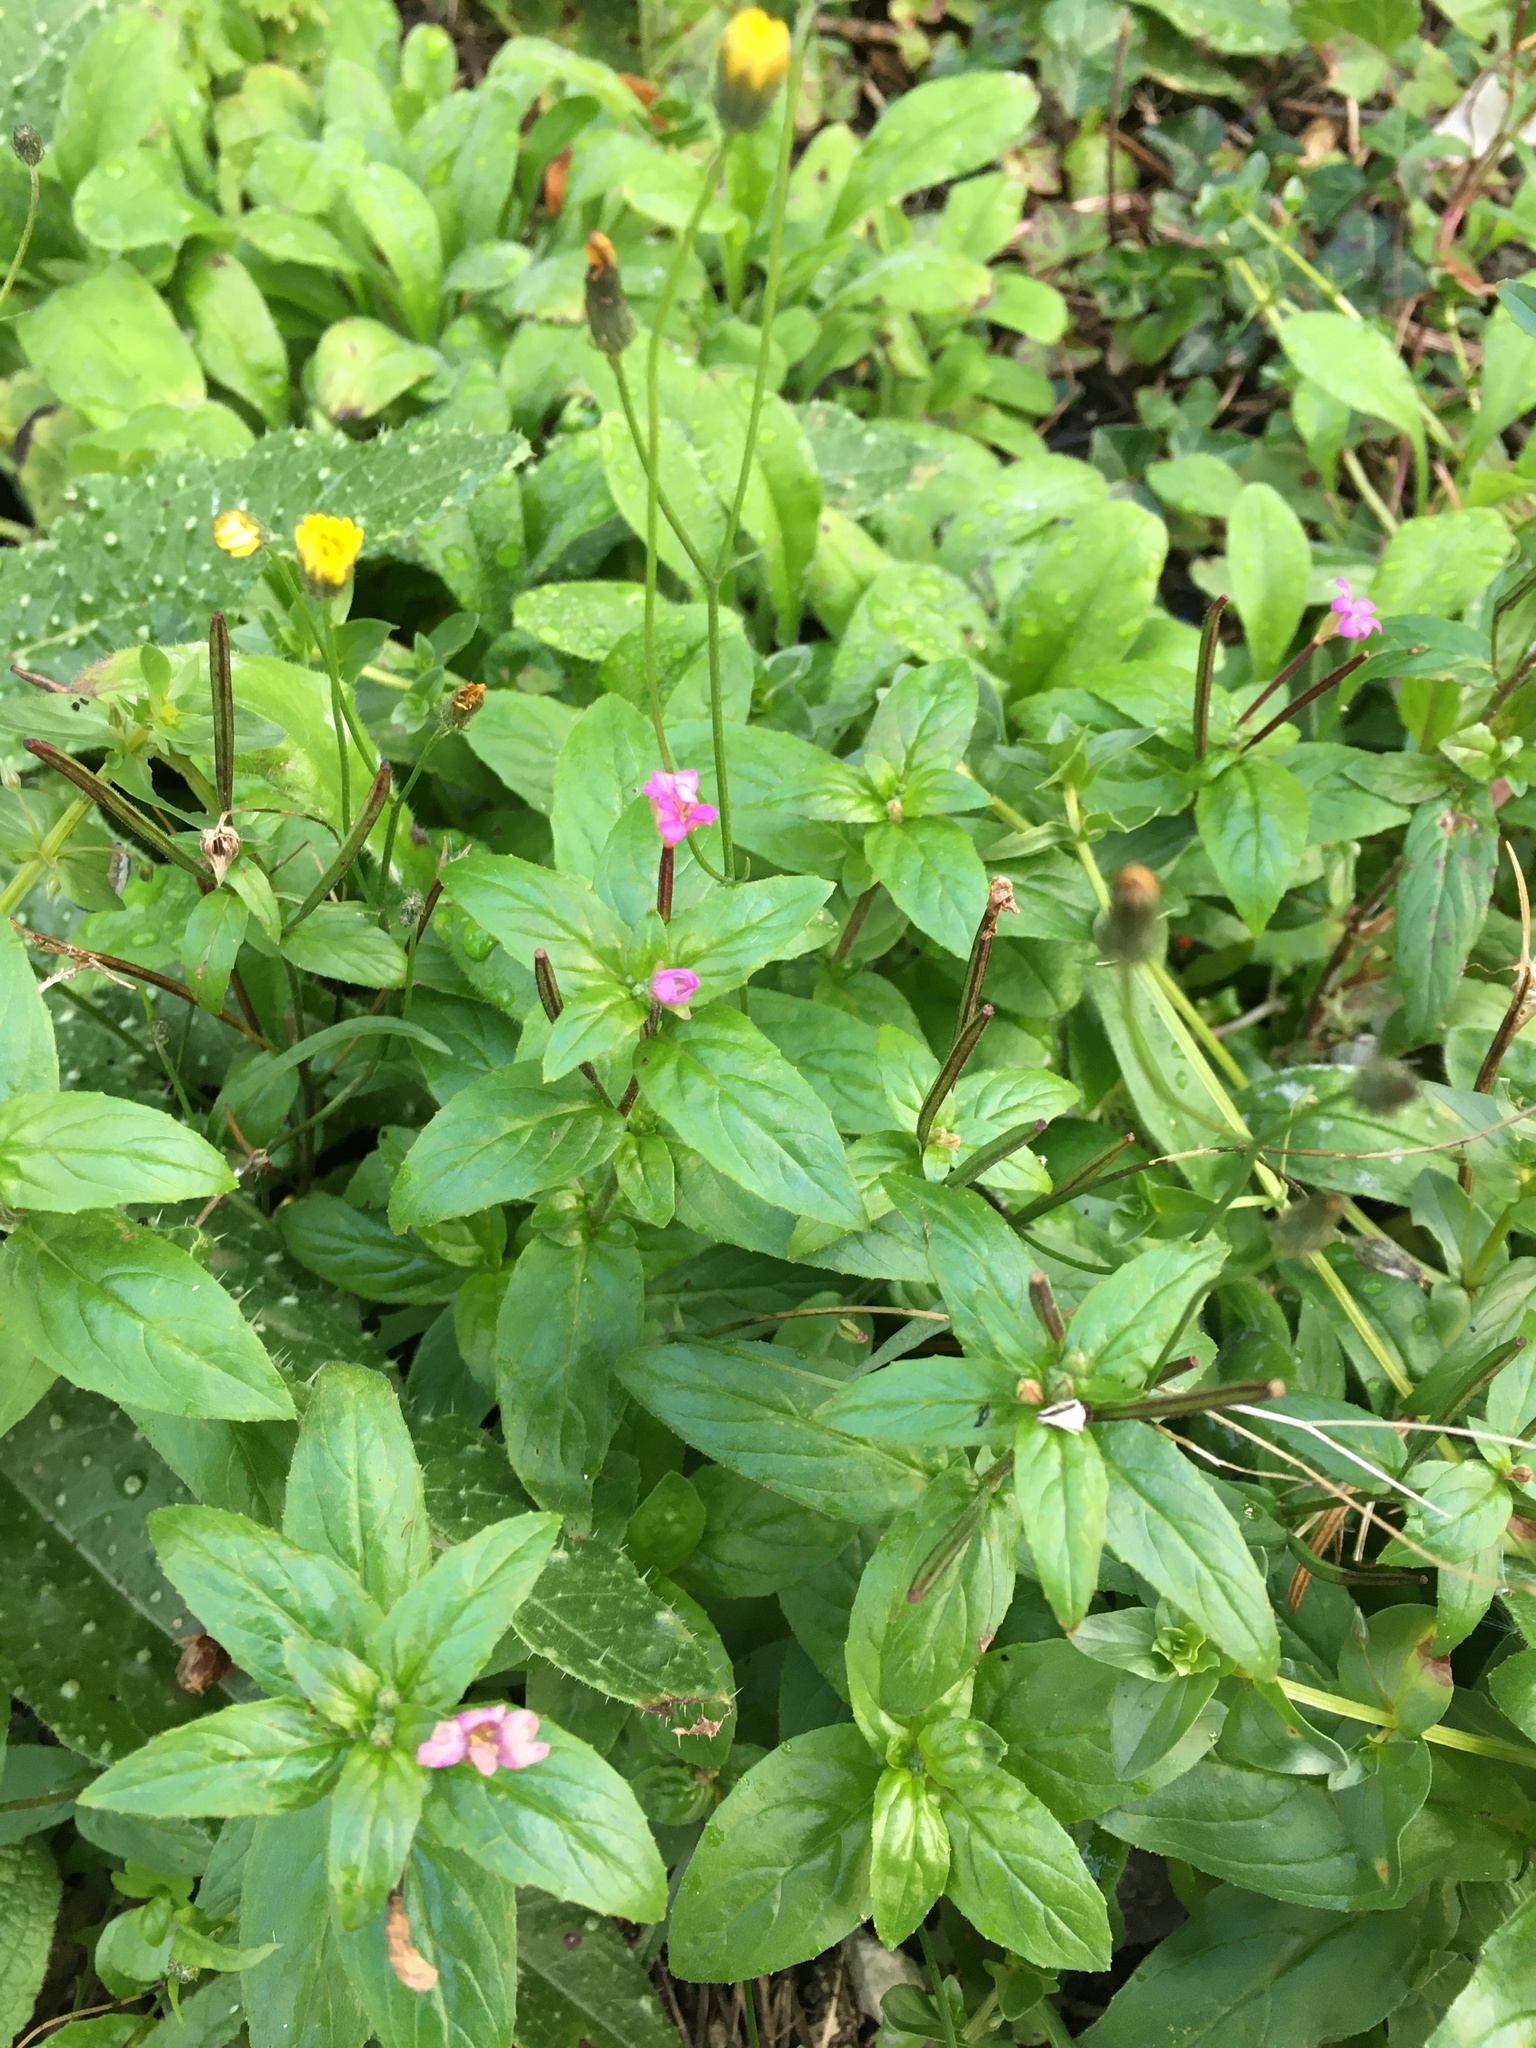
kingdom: Plantae
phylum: Tracheophyta
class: Magnoliopsida
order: Myrtales
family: Onagraceae
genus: Epilobium
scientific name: Epilobium montanum
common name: Broad-leaved willowherb
